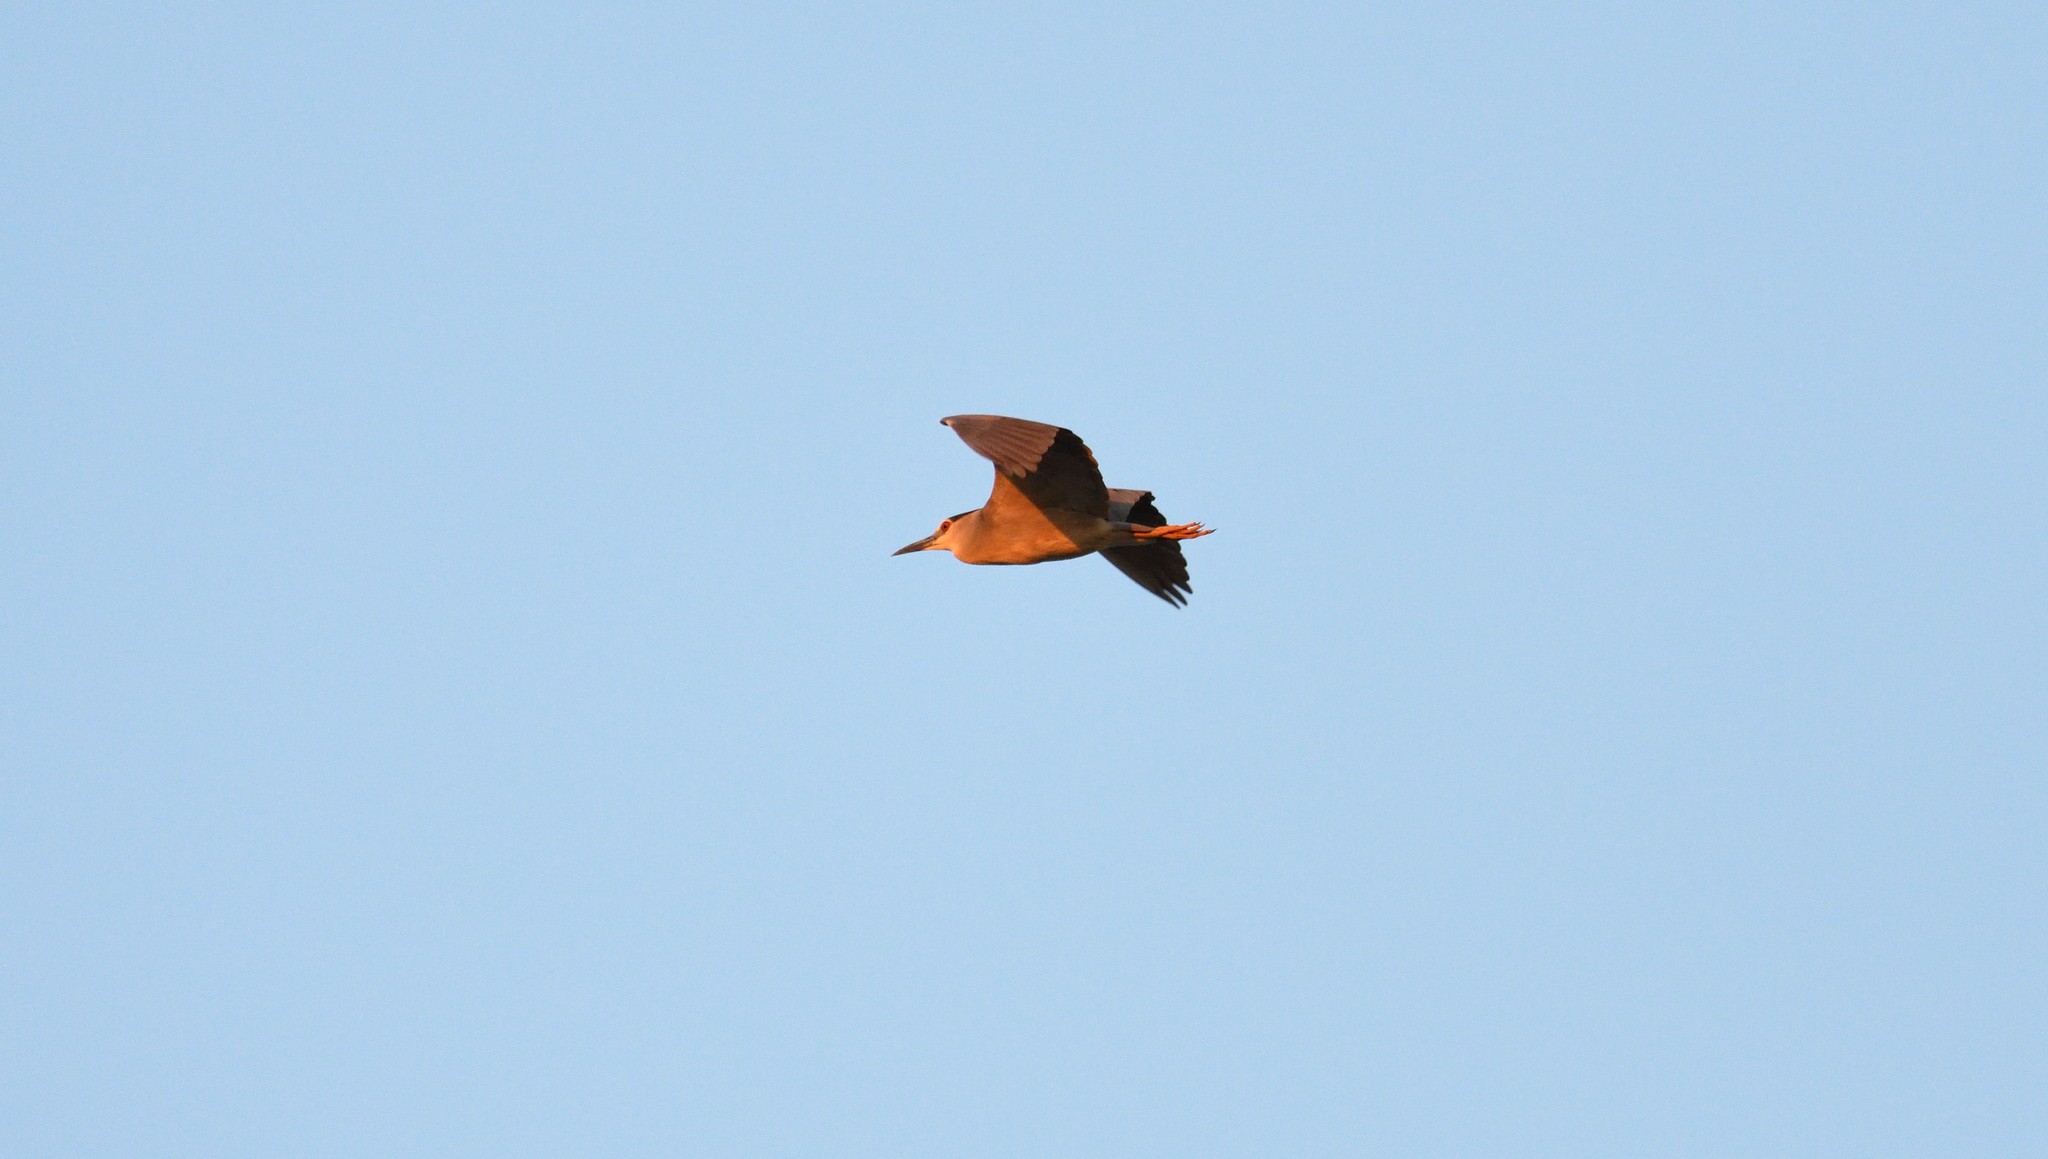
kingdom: Animalia
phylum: Chordata
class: Aves
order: Pelecaniformes
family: Ardeidae
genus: Nycticorax
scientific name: Nycticorax nycticorax
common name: Black-crowned night heron
